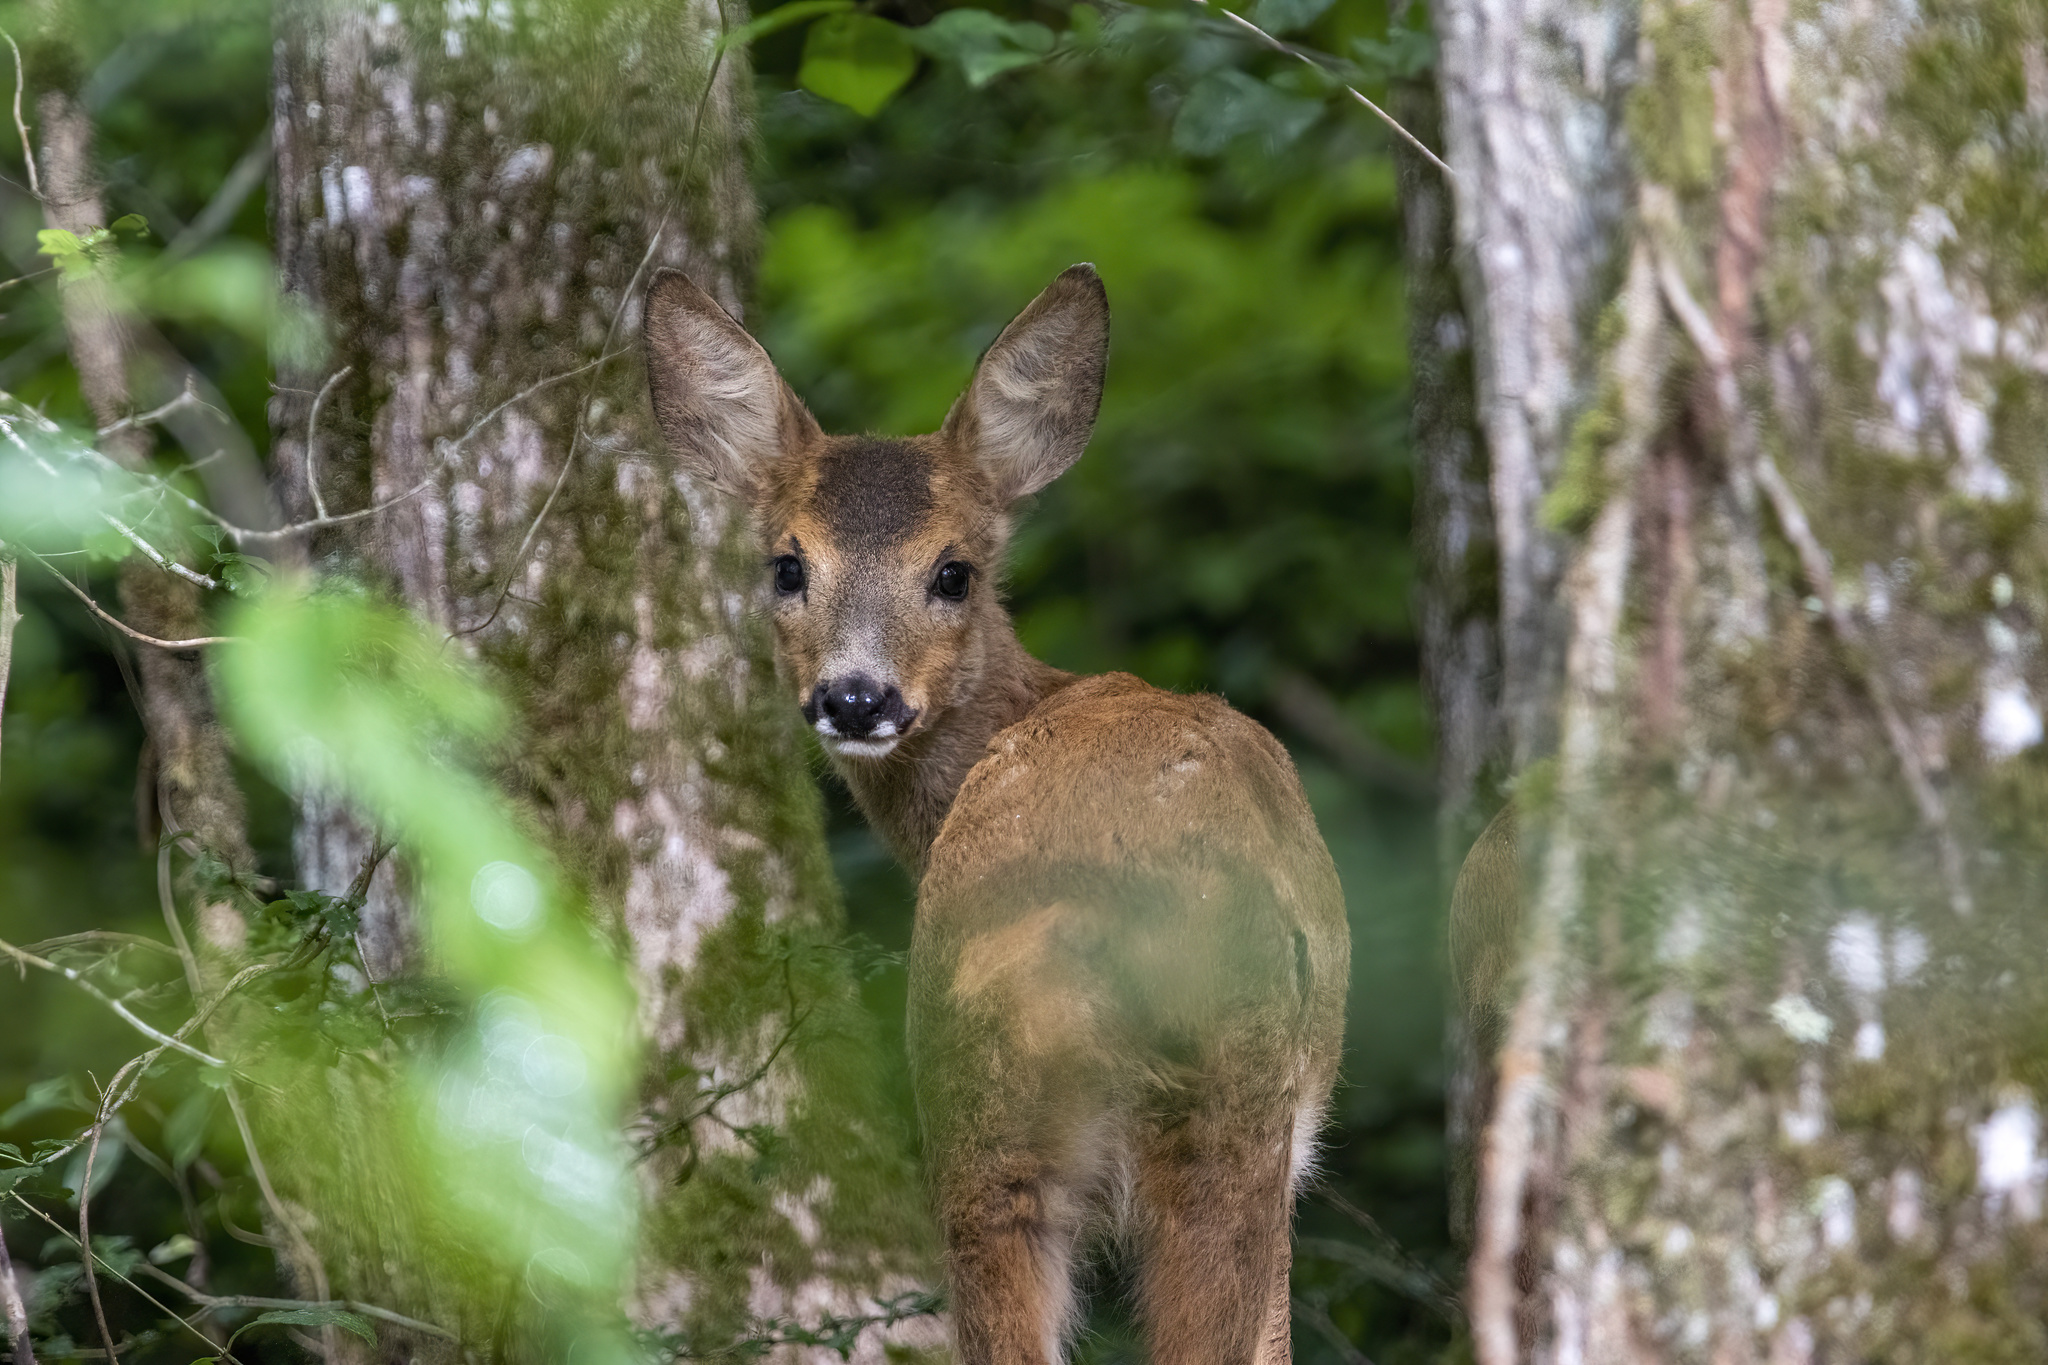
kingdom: Animalia
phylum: Chordata
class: Mammalia
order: Artiodactyla
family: Cervidae
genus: Capreolus
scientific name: Capreolus capreolus
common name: Western roe deer
